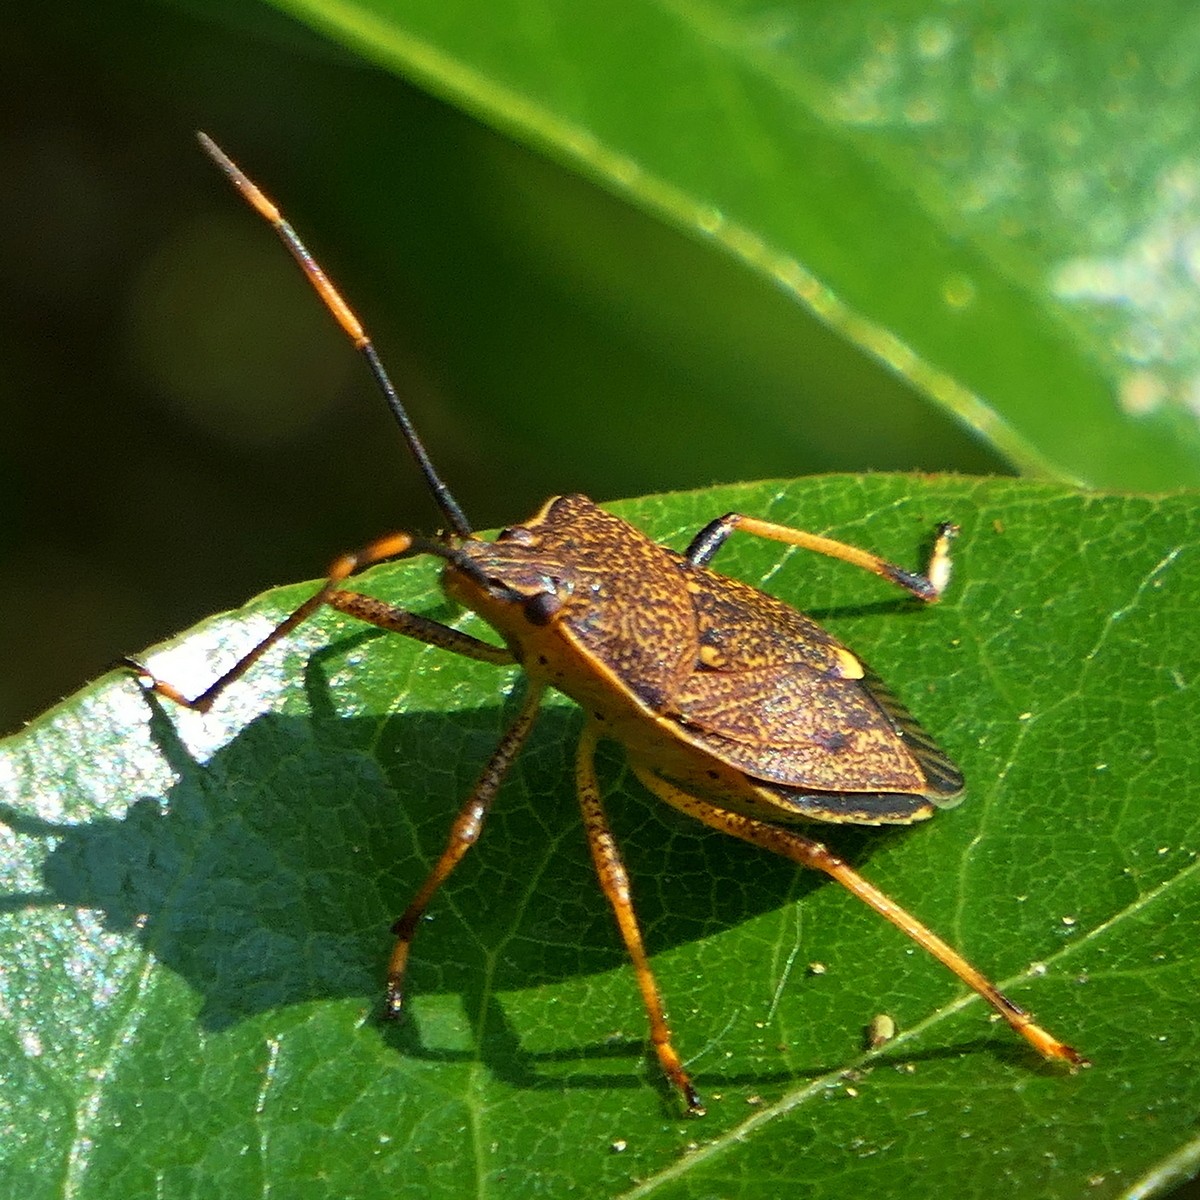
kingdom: Animalia
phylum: Arthropoda
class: Insecta
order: Hemiptera
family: Pentatomidae
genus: Poecilometis
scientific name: Poecilometis
